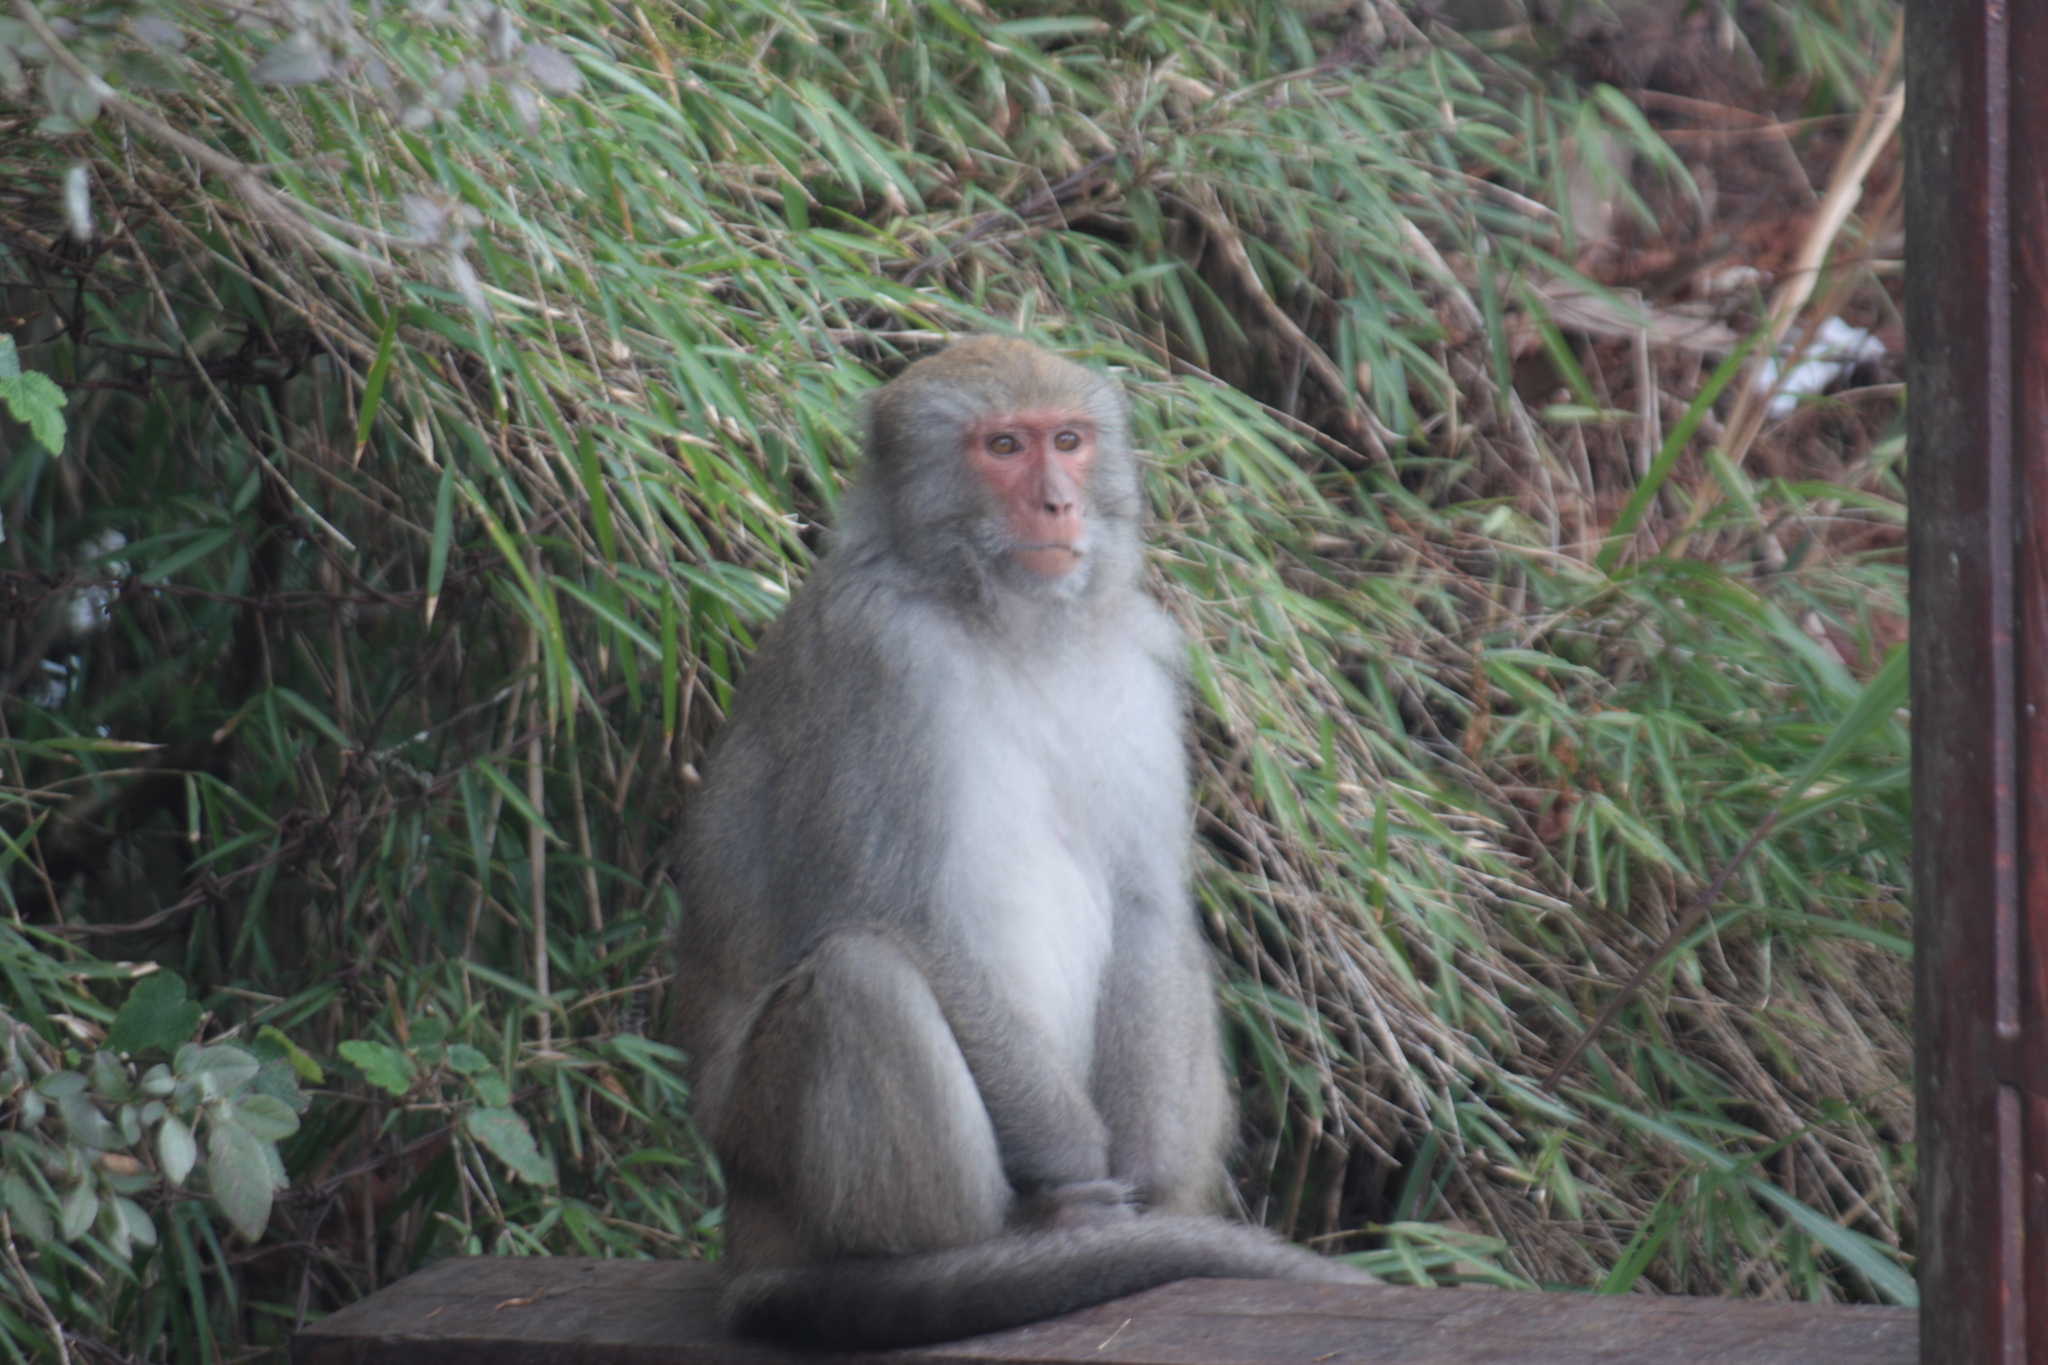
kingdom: Animalia
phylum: Chordata
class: Mammalia
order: Primates
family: Cercopithecidae
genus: Macaca
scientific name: Macaca cyclopis
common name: Formosan rock macaque
